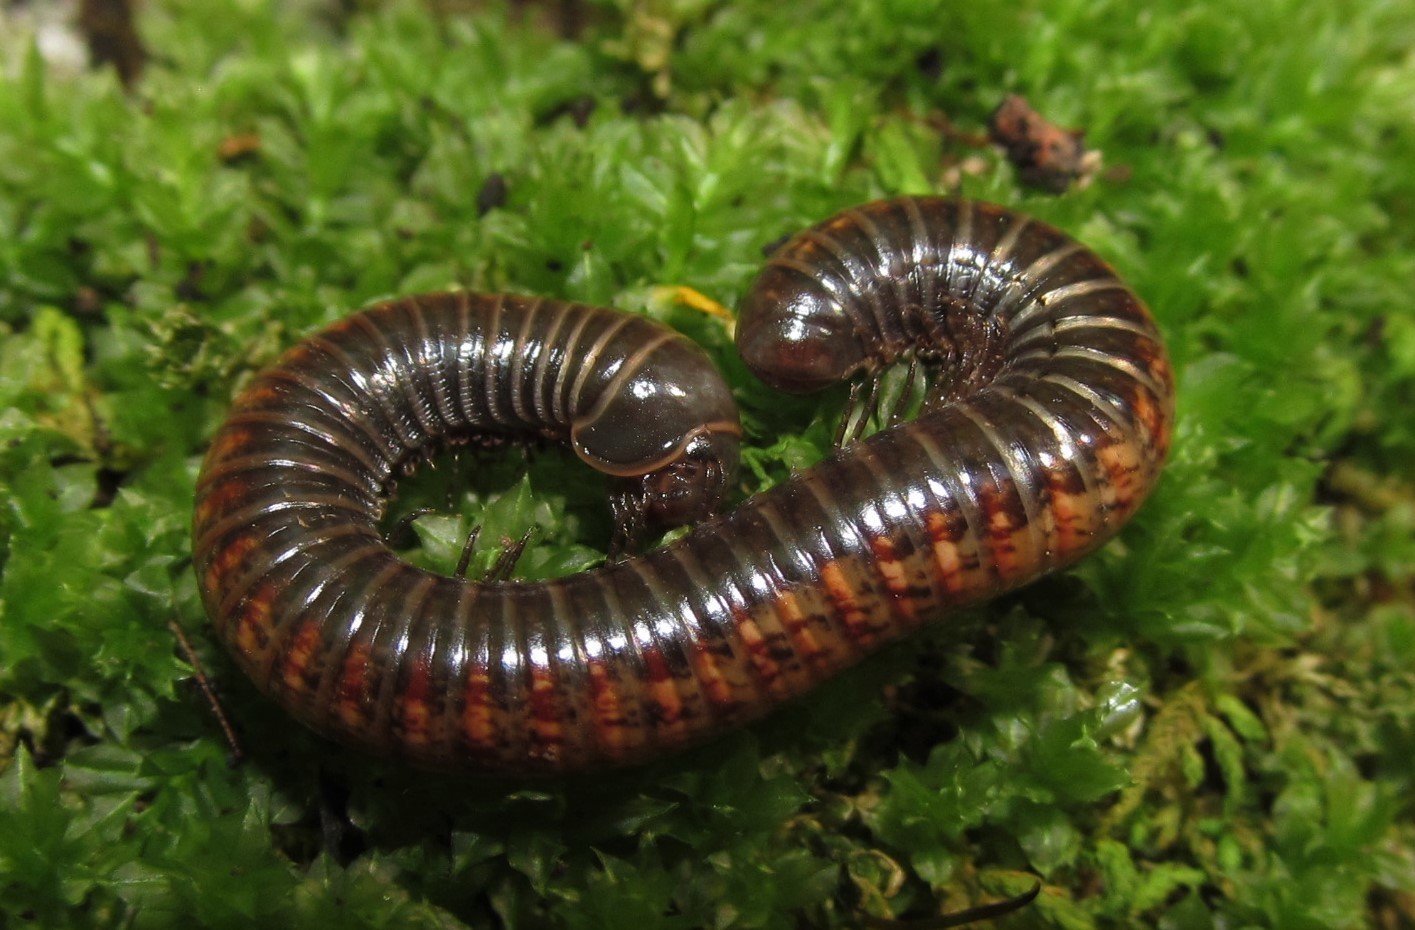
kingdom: Animalia
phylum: Arthropoda
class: Diplopoda
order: Spirostreptida
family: Choctellidae
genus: Choctella
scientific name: Choctella cumminsi
